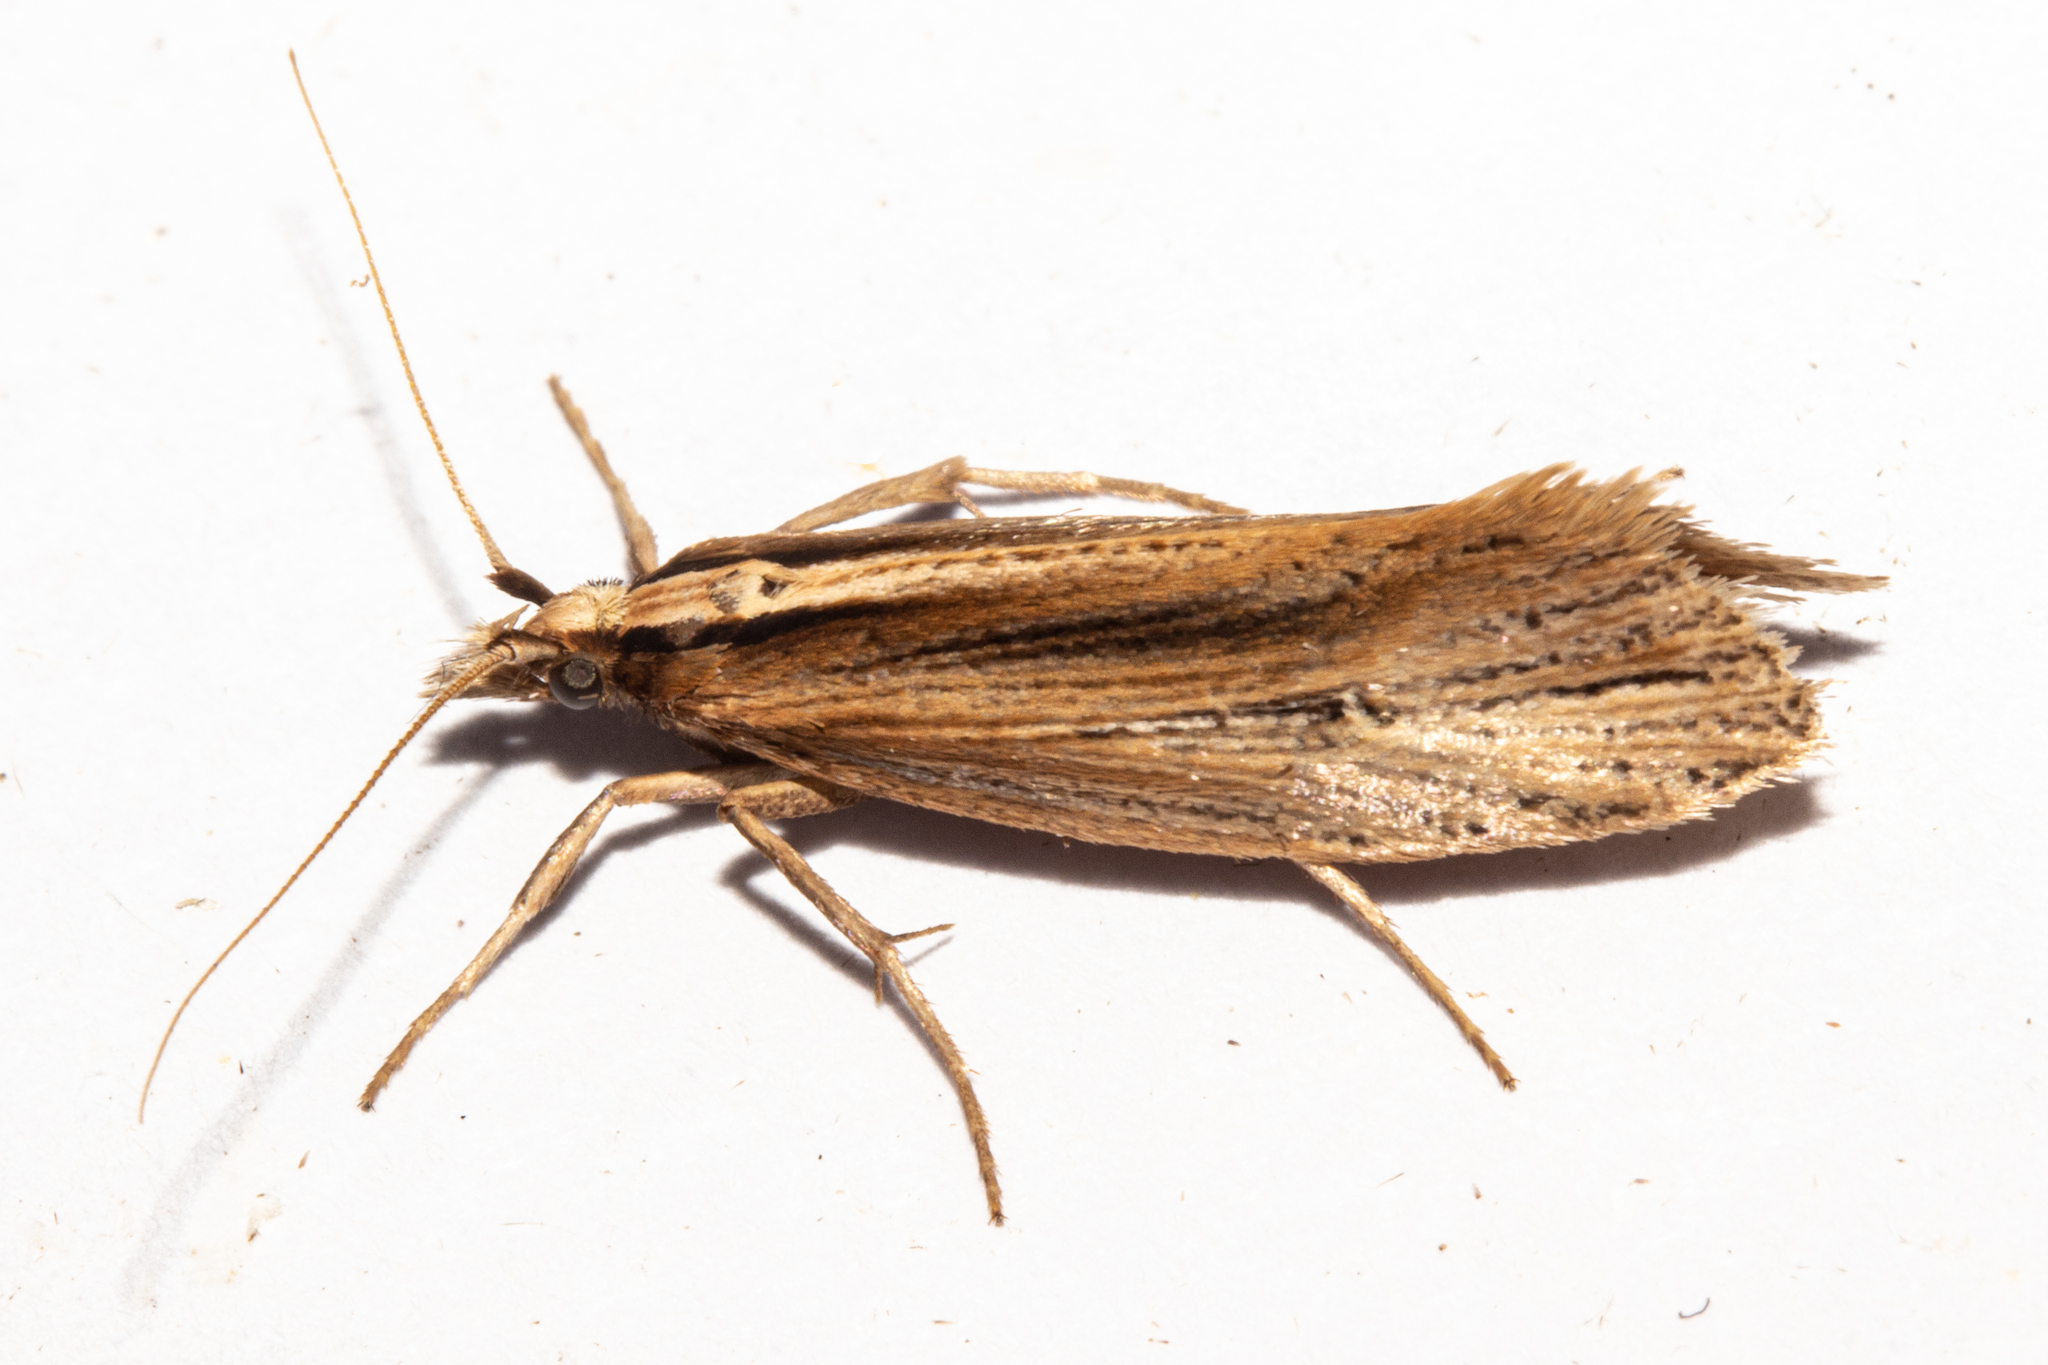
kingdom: Animalia
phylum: Arthropoda
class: Insecta
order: Lepidoptera
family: Plutellidae
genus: Proditrix
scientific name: Proditrix megalynta
